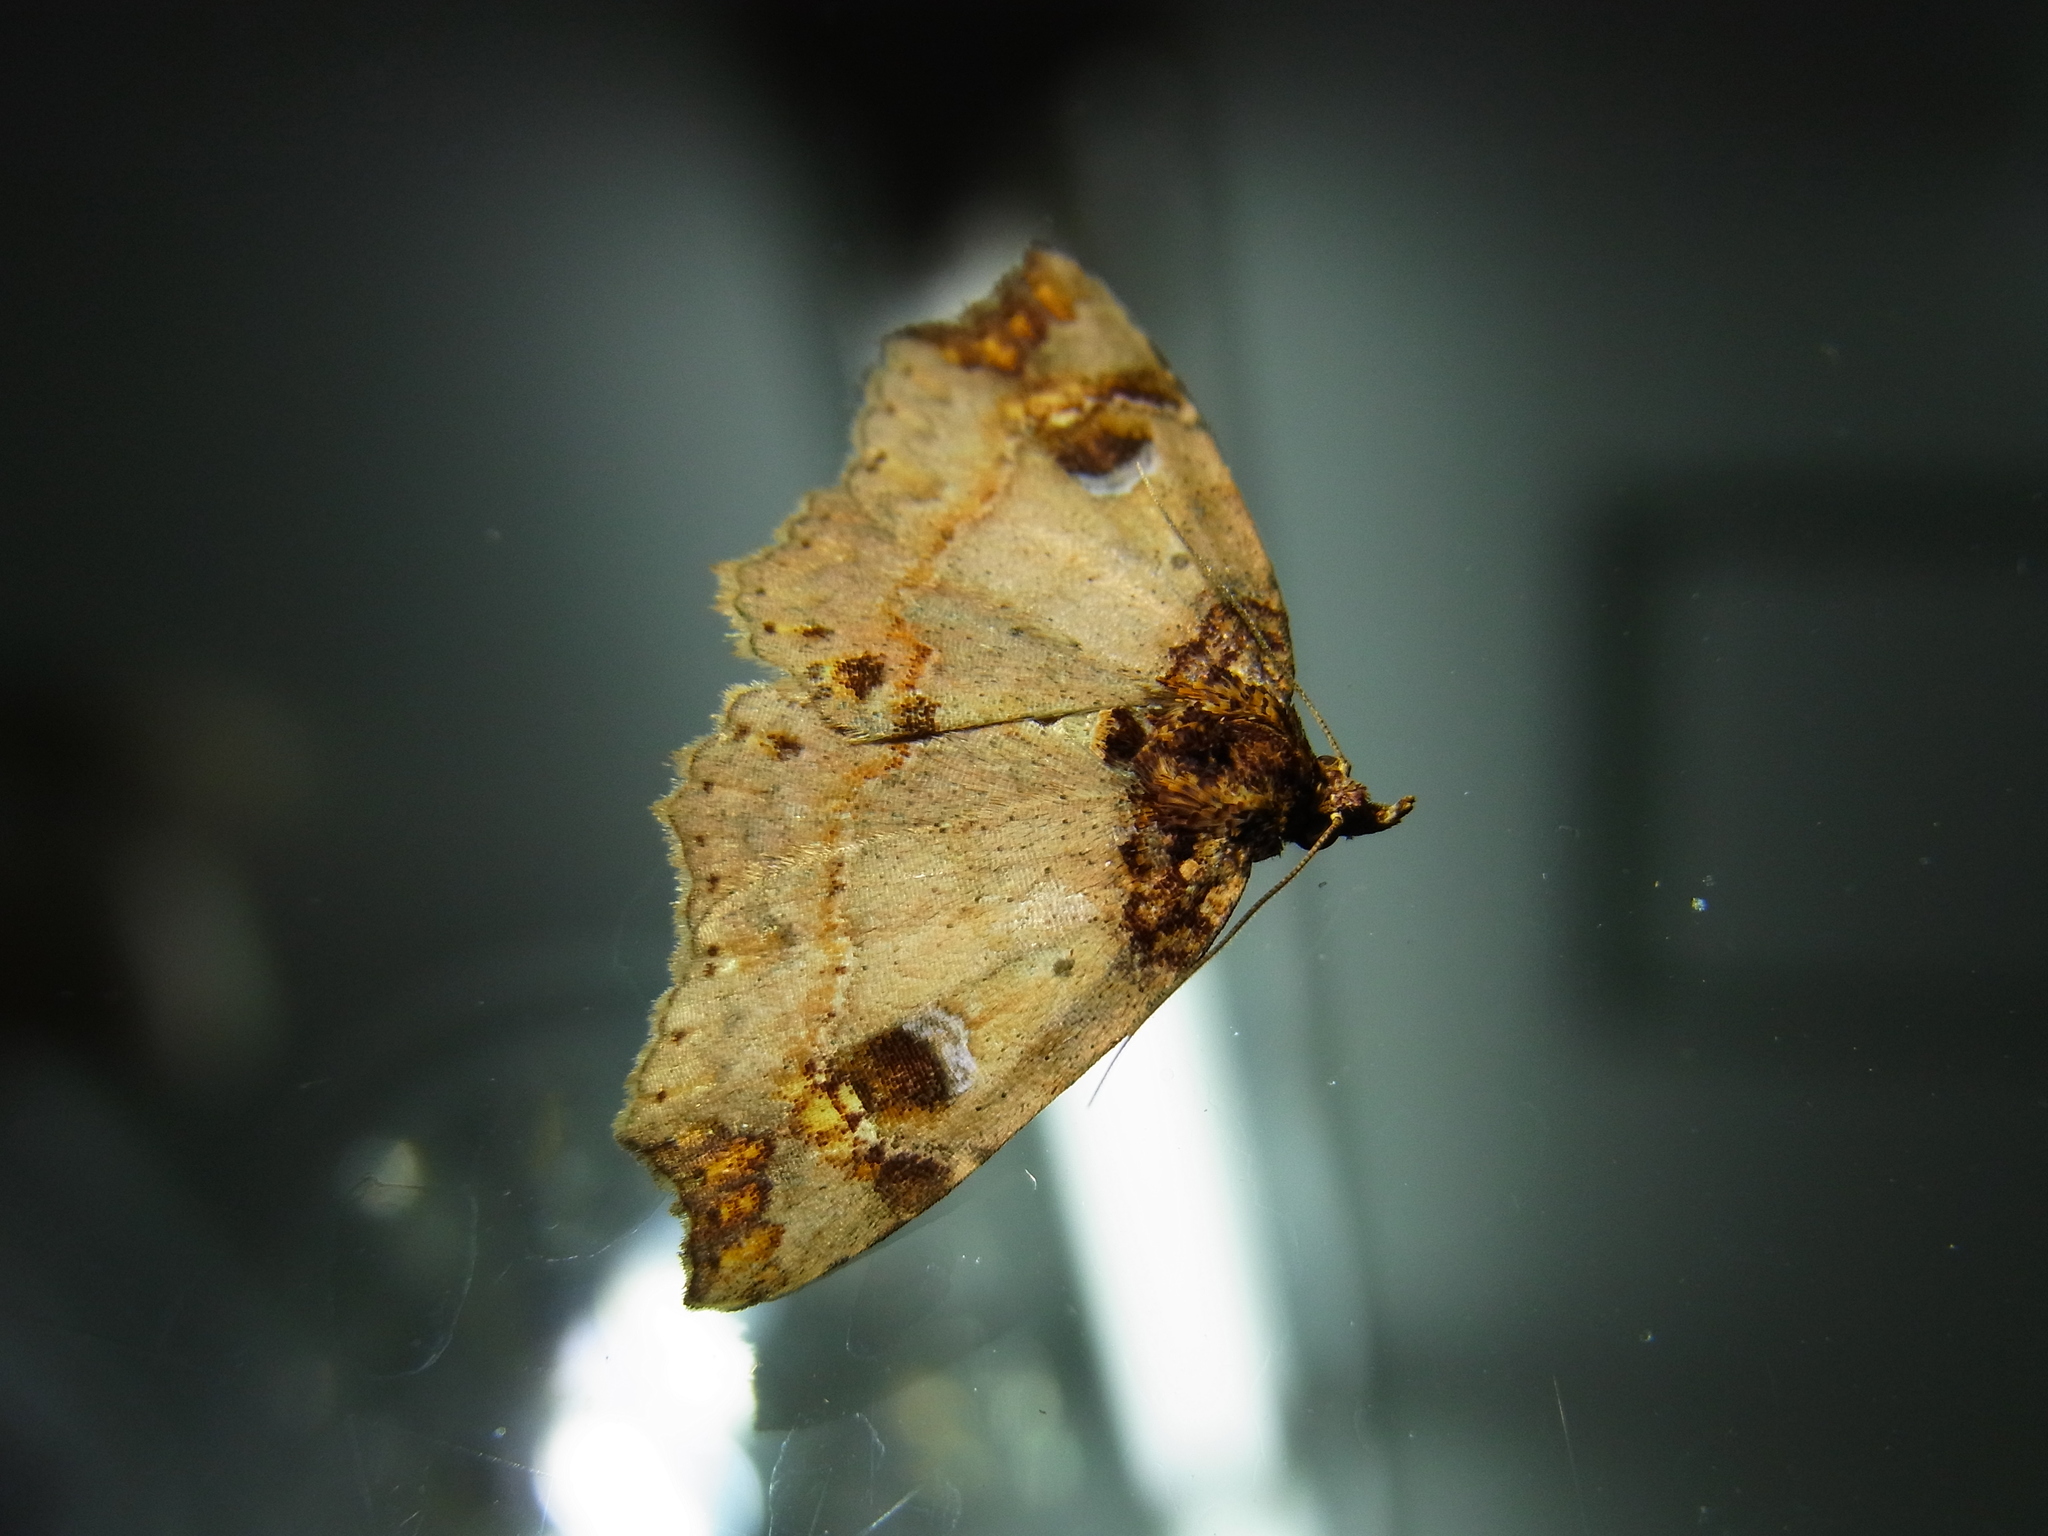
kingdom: Animalia
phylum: Arthropoda
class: Insecta
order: Lepidoptera
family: Erebidae
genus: Eugrapta
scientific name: Eugrapta igniflua
